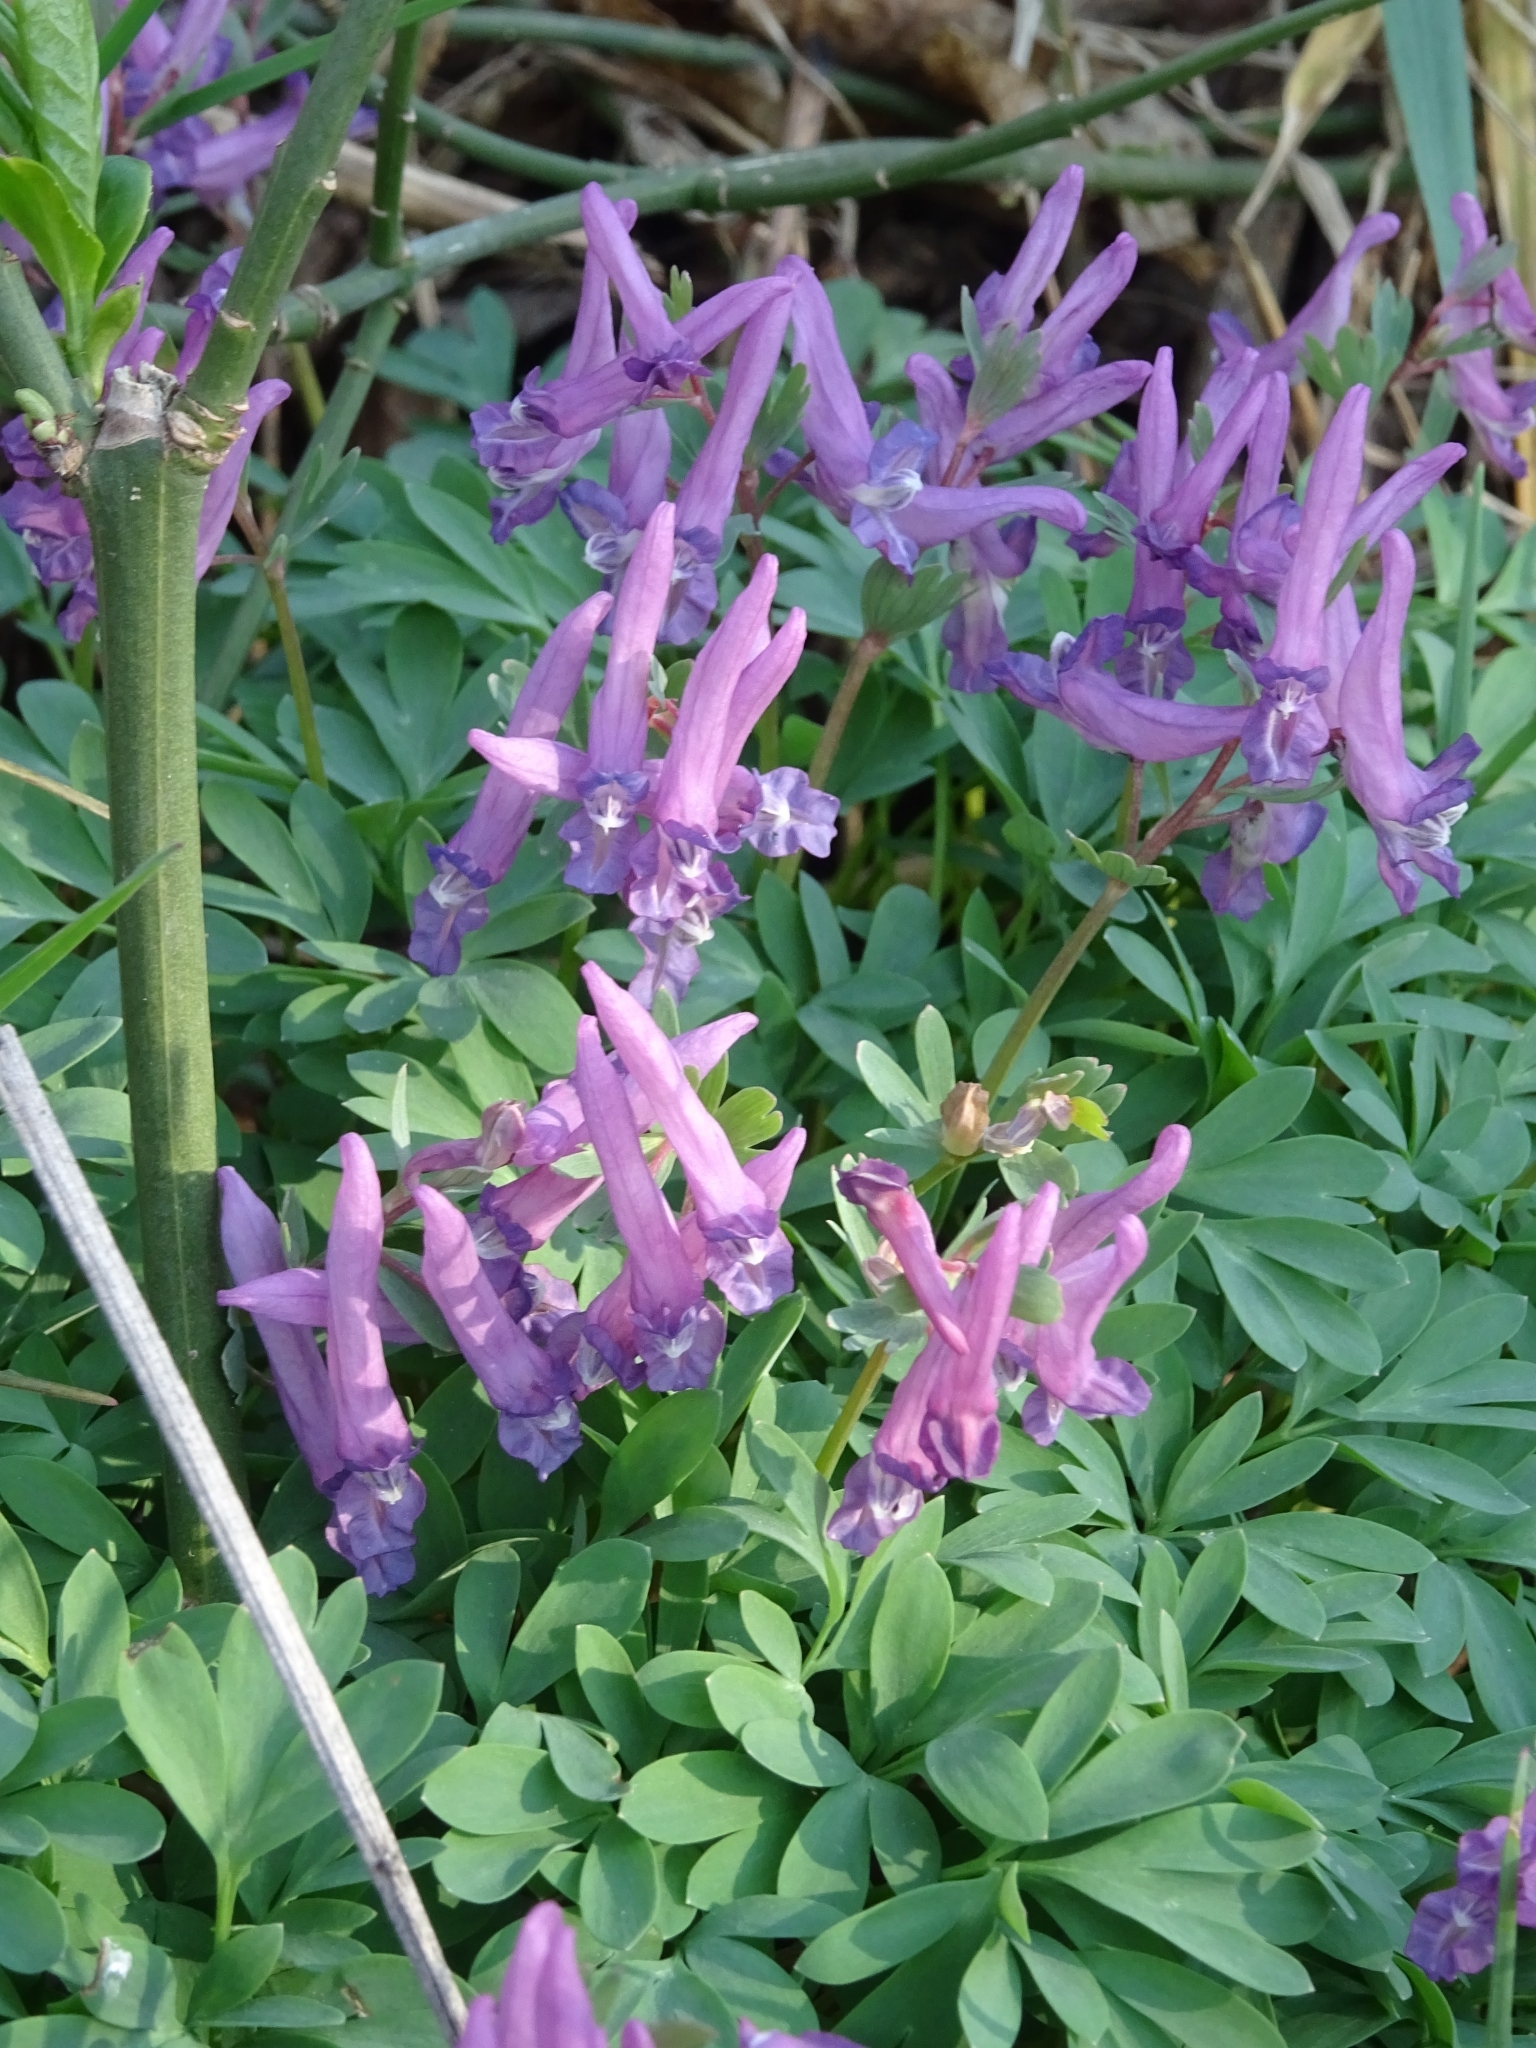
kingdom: Plantae
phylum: Tracheophyta
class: Magnoliopsida
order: Ranunculales
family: Papaveraceae
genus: Corydalis
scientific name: Corydalis solida
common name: Bird-in-a-bush
